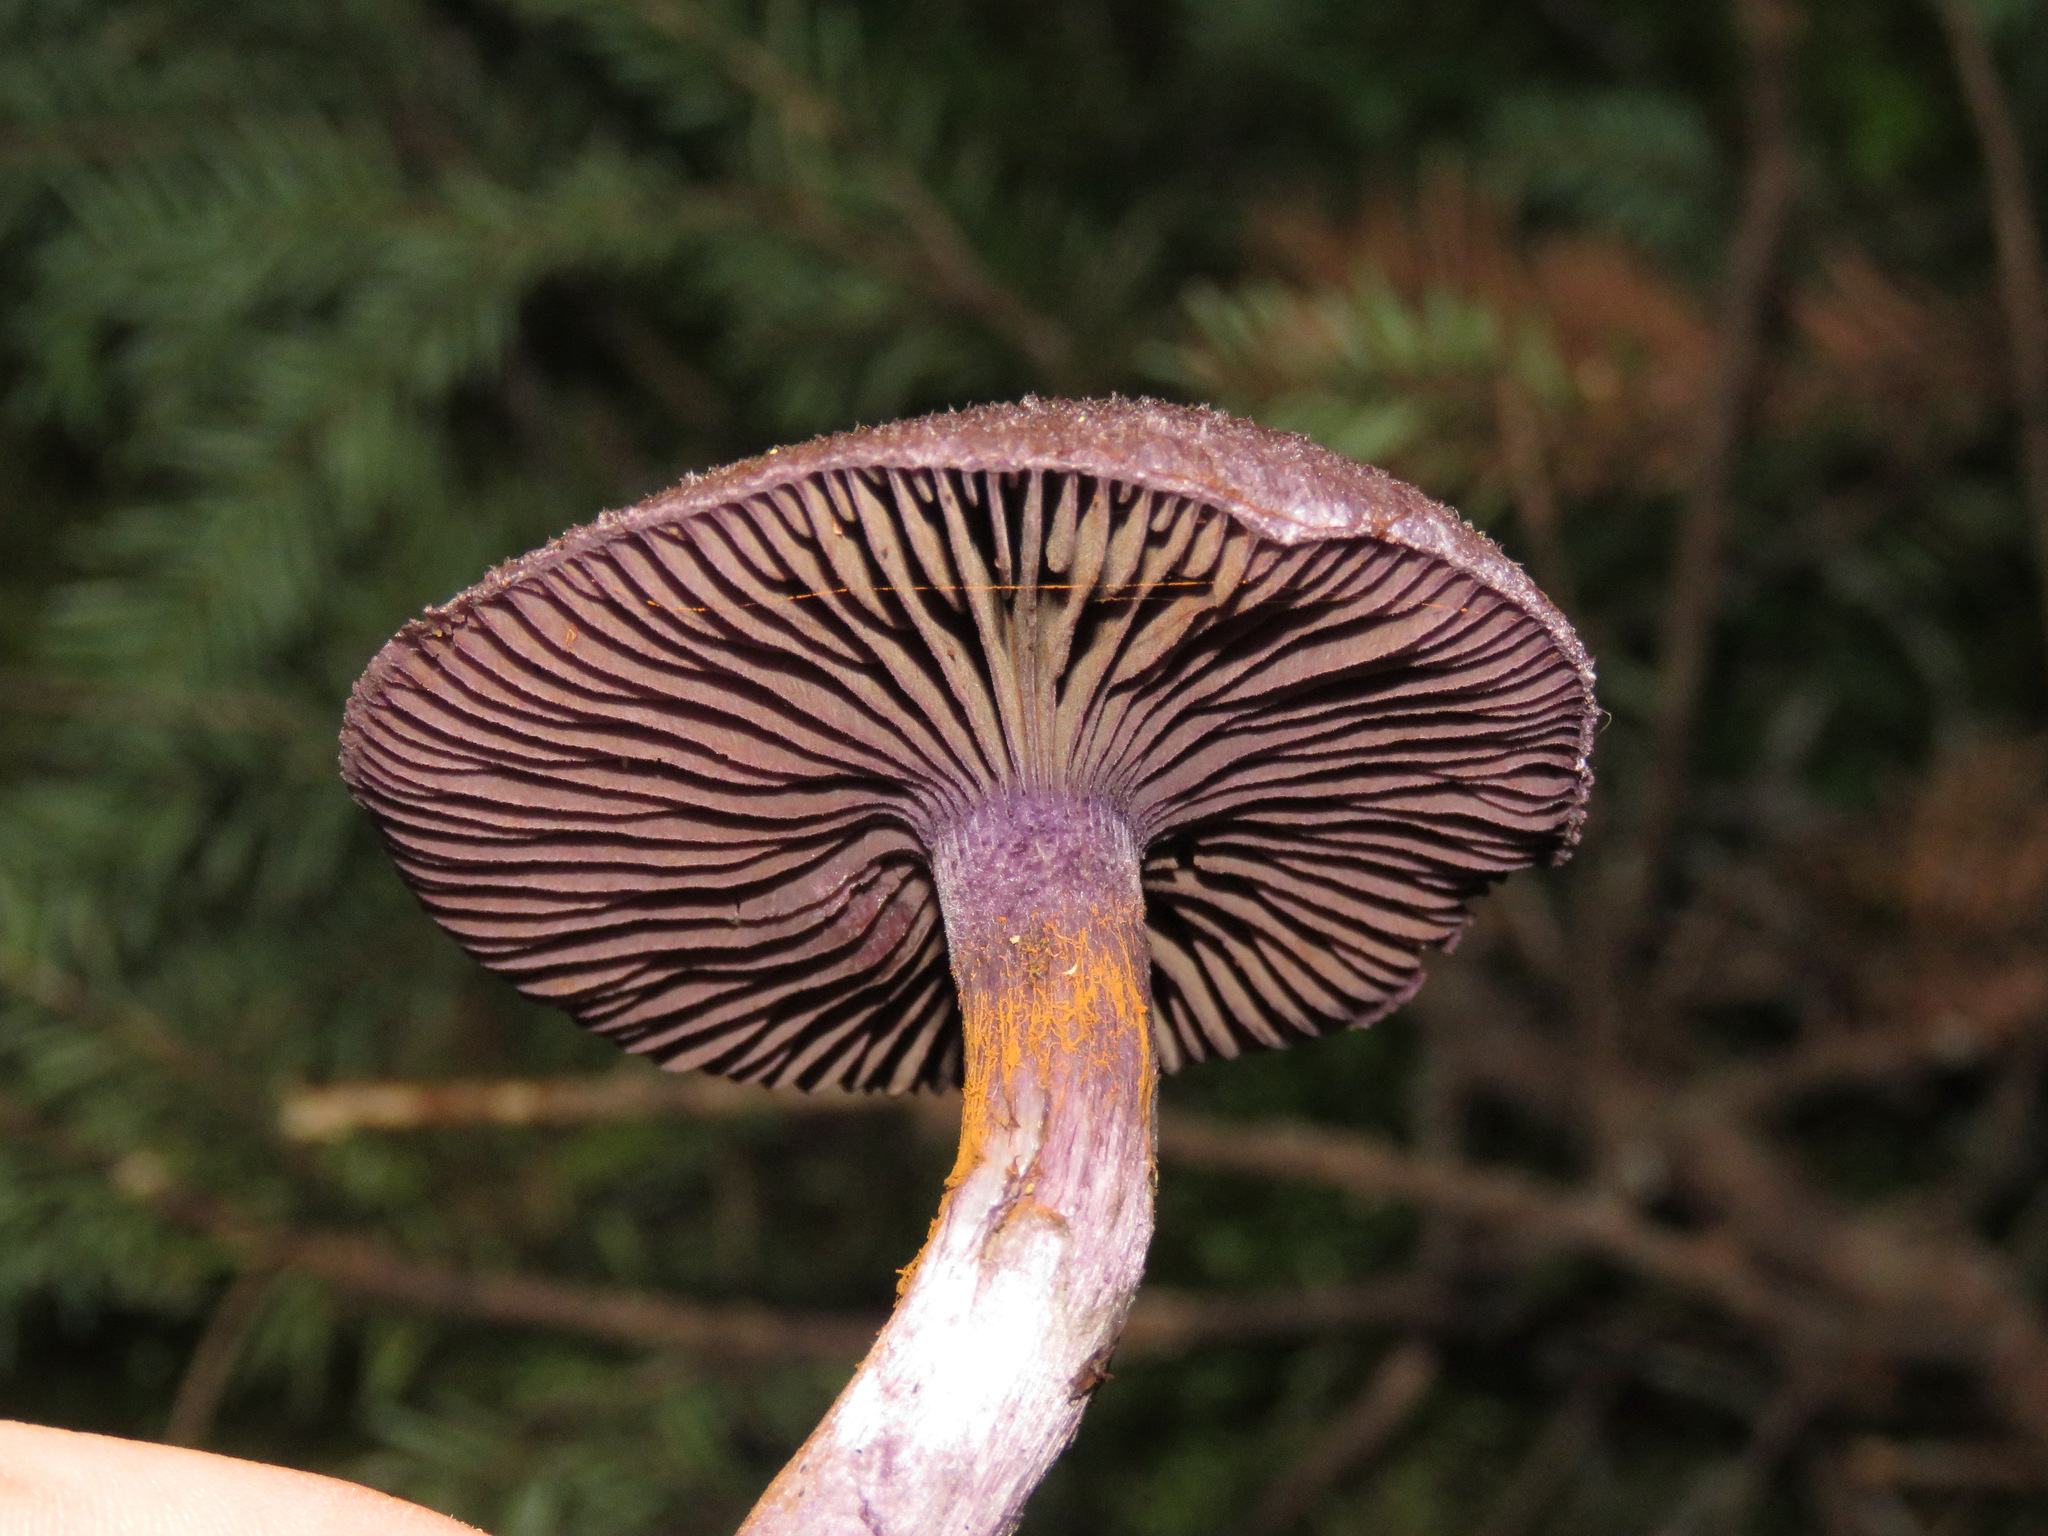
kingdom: Fungi
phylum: Basidiomycota
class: Agaricomycetes
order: Agaricales
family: Cortinariaceae
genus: Cortinarius
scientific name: Cortinarius violaceus
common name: Violet webcap
